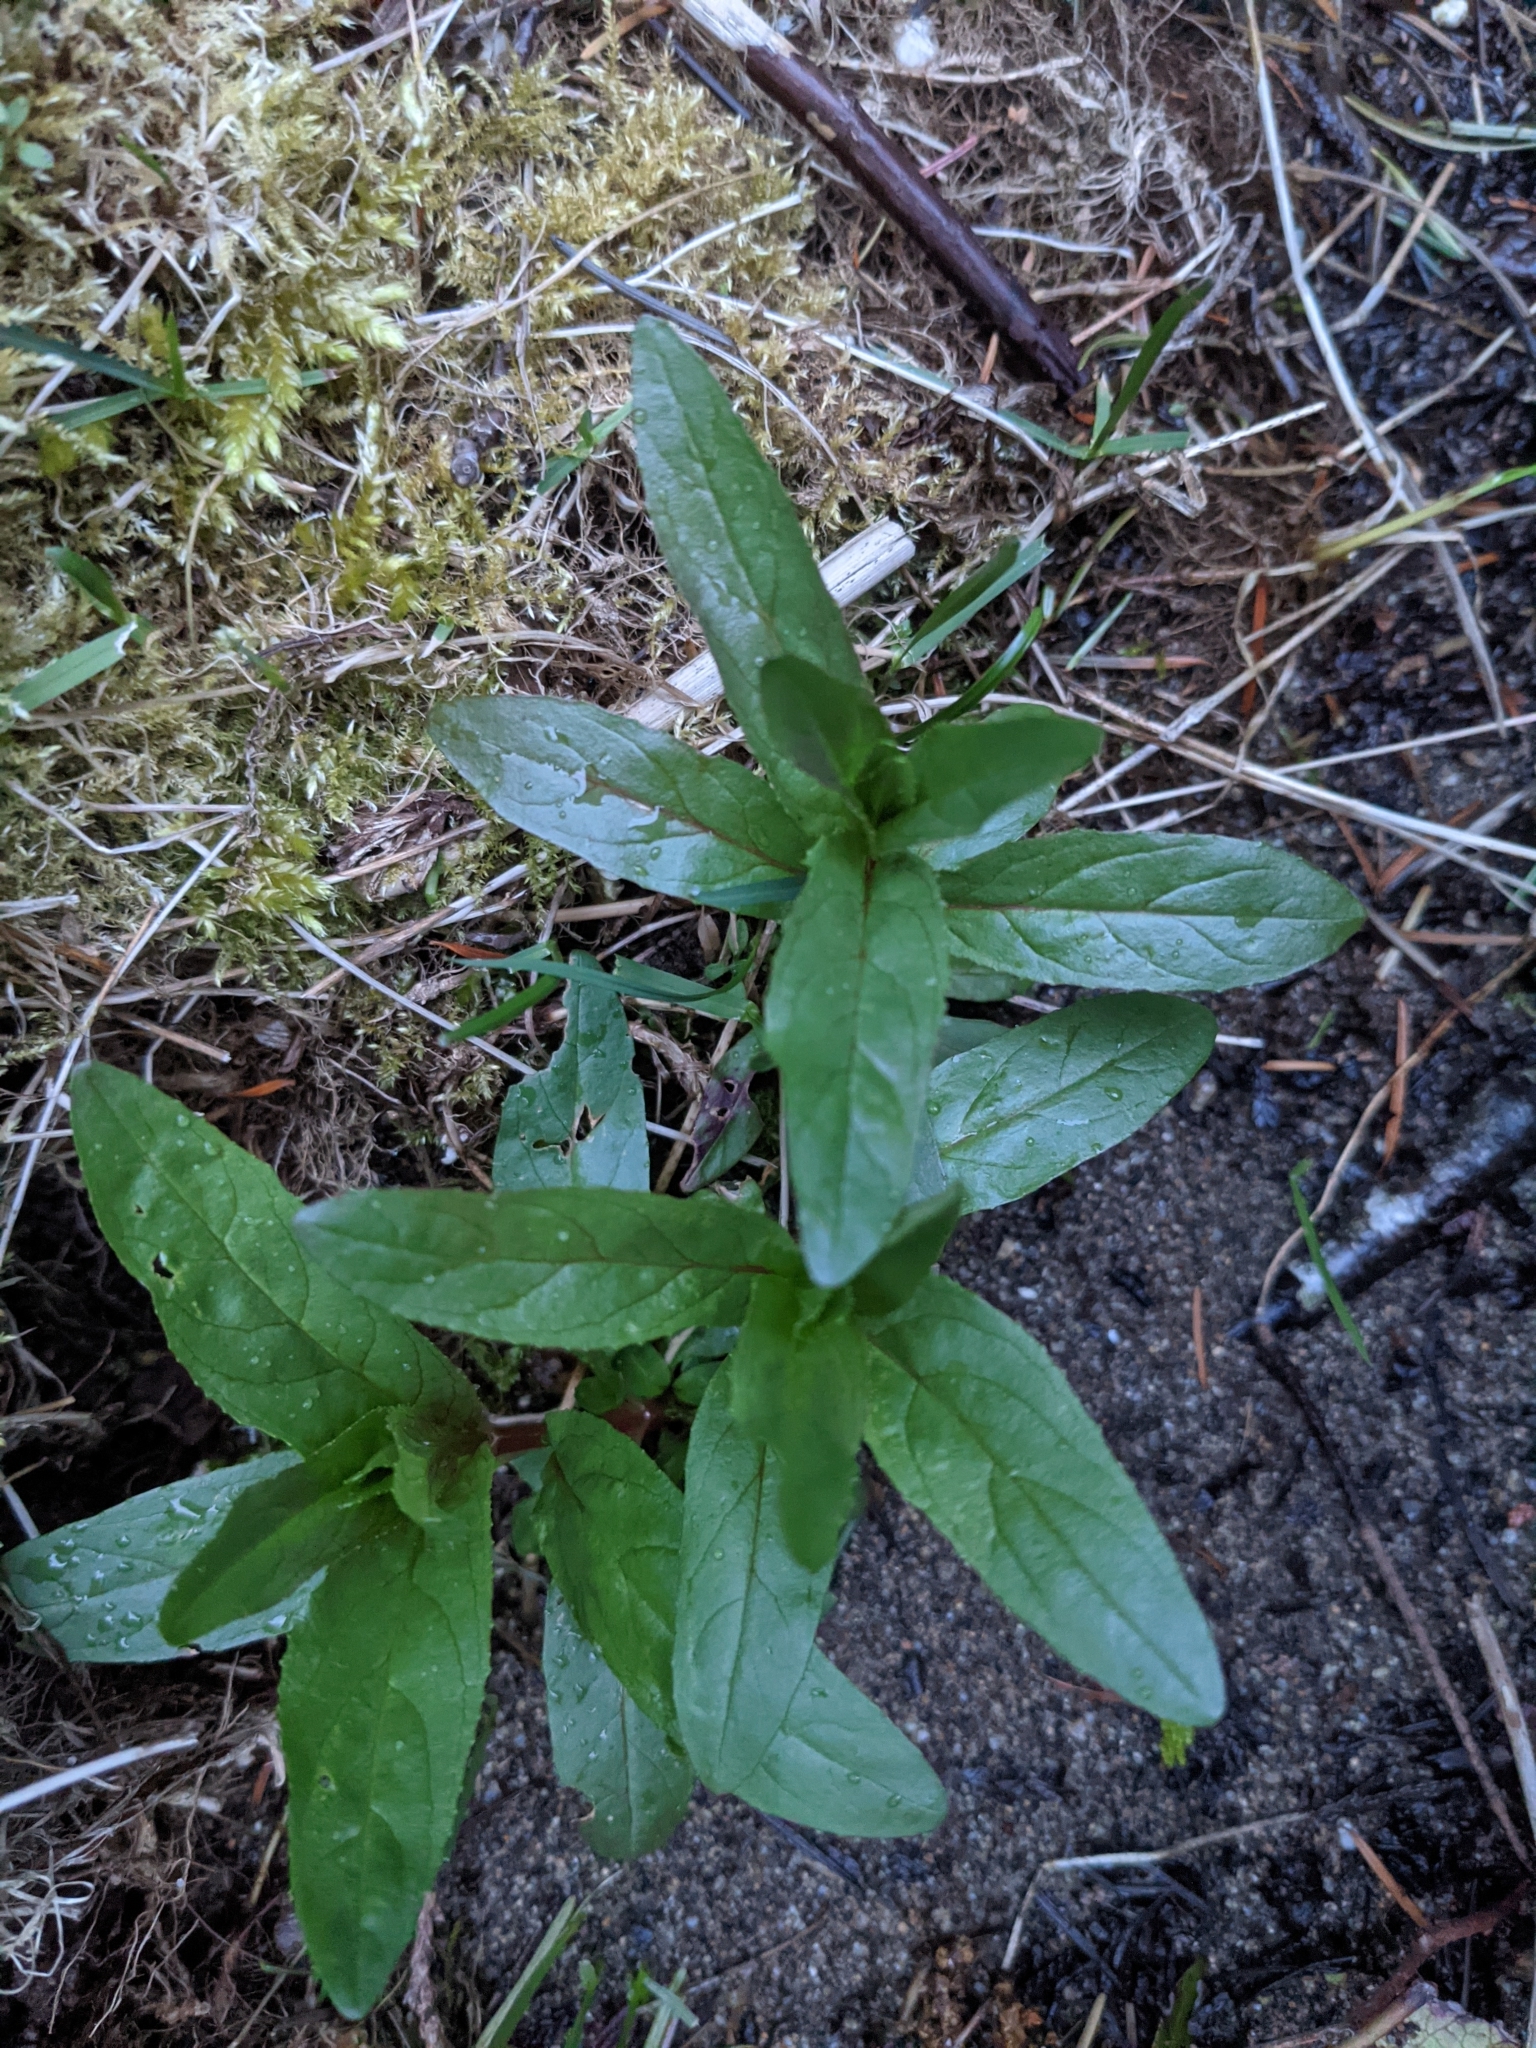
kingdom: Plantae
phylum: Tracheophyta
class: Magnoliopsida
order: Myrtales
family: Onagraceae
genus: Epilobium
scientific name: Epilobium ciliatum
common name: American willowherb
